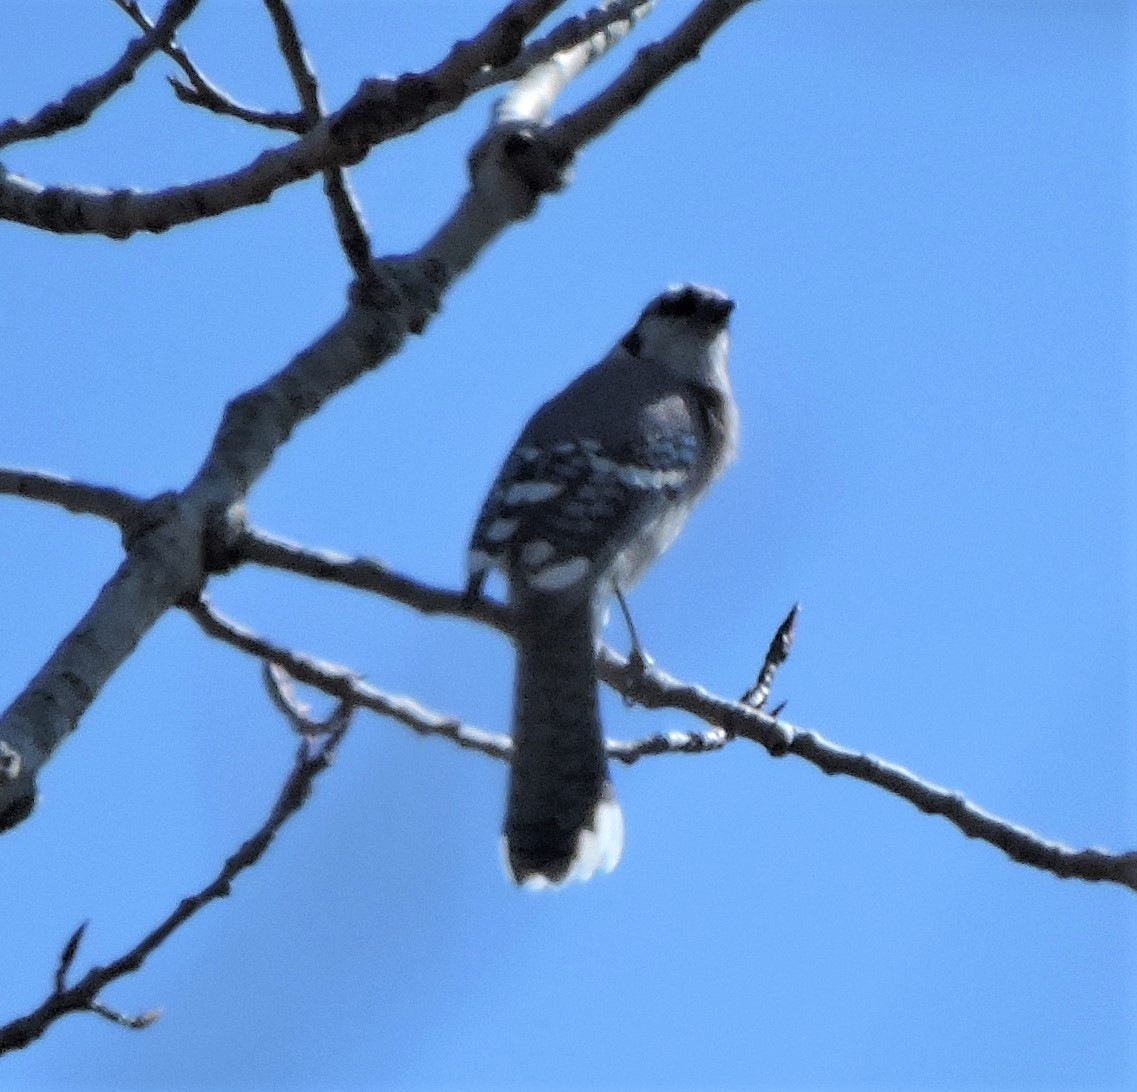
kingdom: Animalia
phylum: Chordata
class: Aves
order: Passeriformes
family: Corvidae
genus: Cyanocitta
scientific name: Cyanocitta cristata
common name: Blue jay
